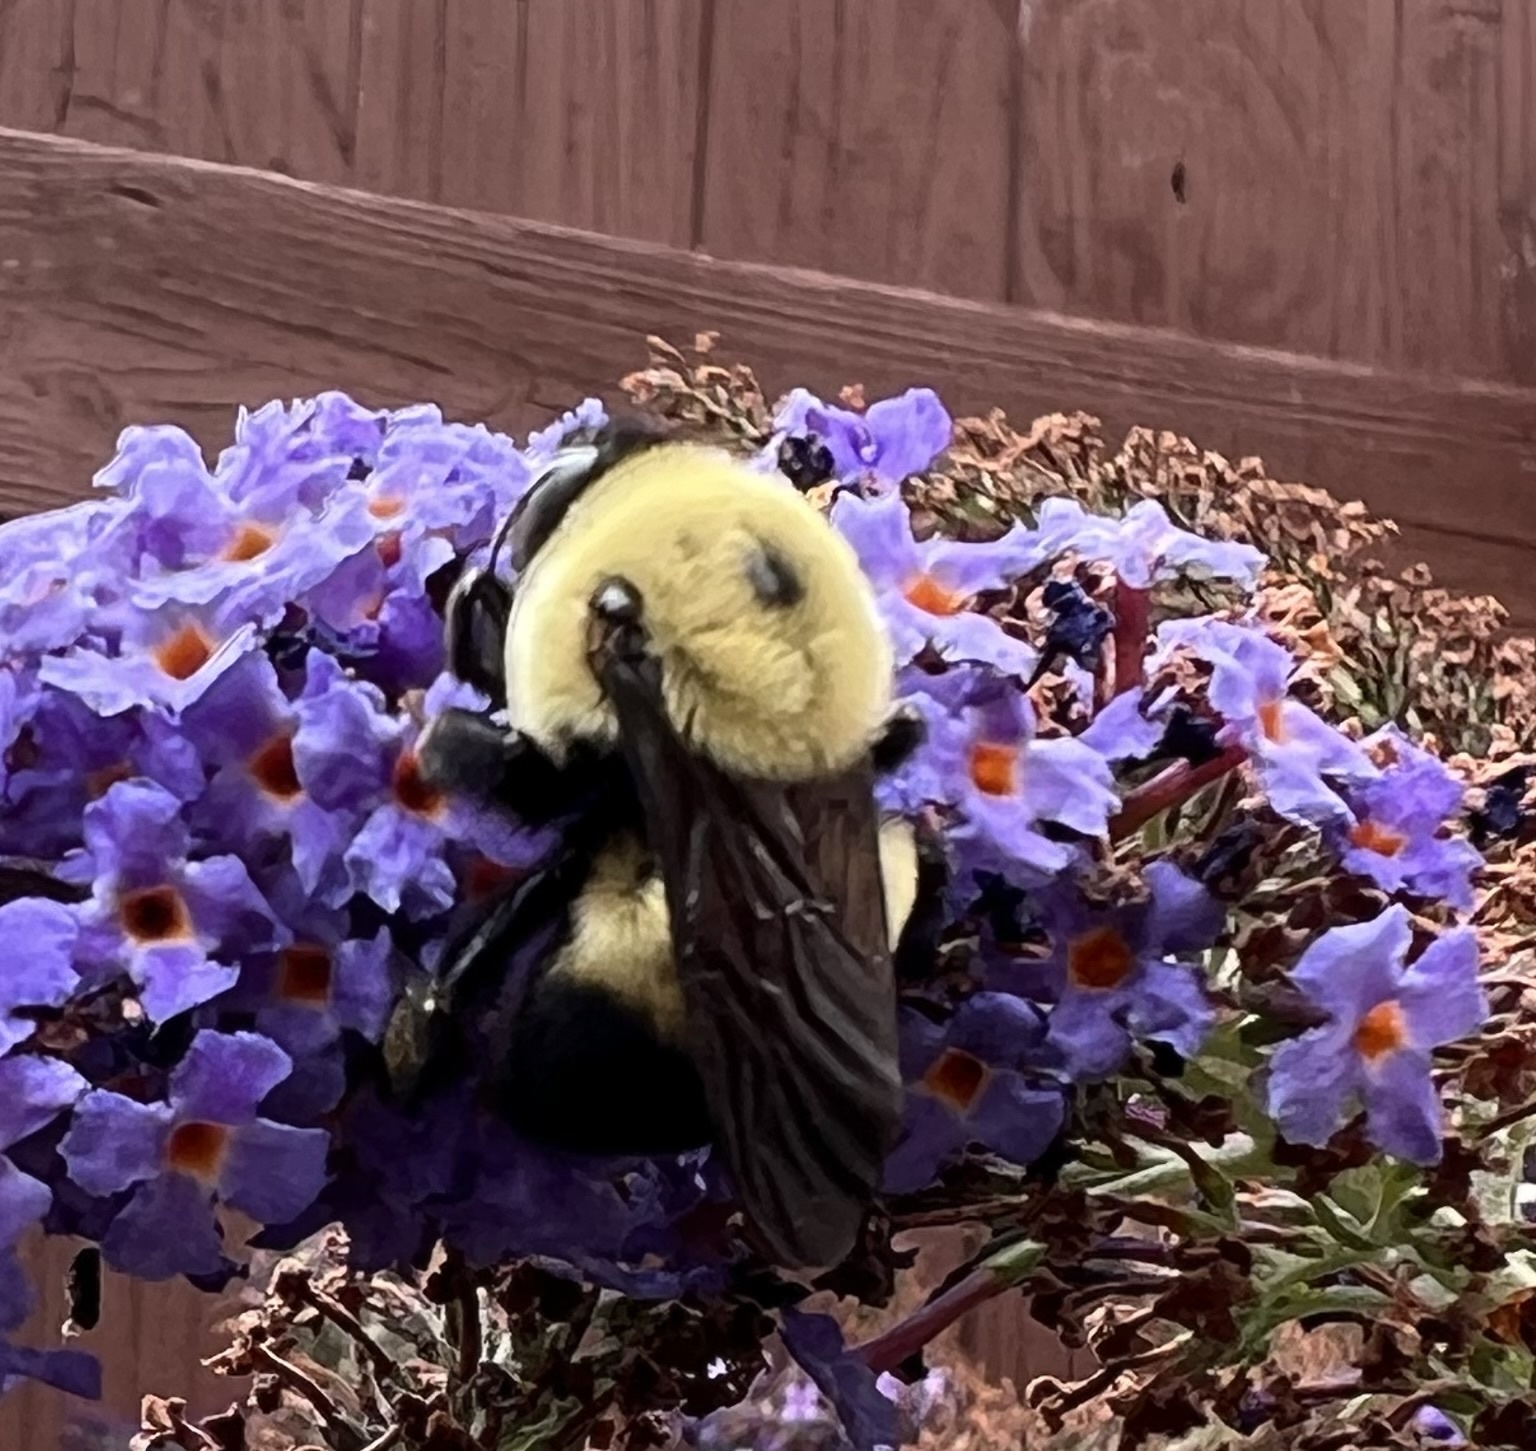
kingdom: Animalia
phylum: Arthropoda
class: Insecta
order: Hymenoptera
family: Apidae
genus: Bombus
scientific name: Bombus griseocollis
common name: Brown-belted bumble bee
